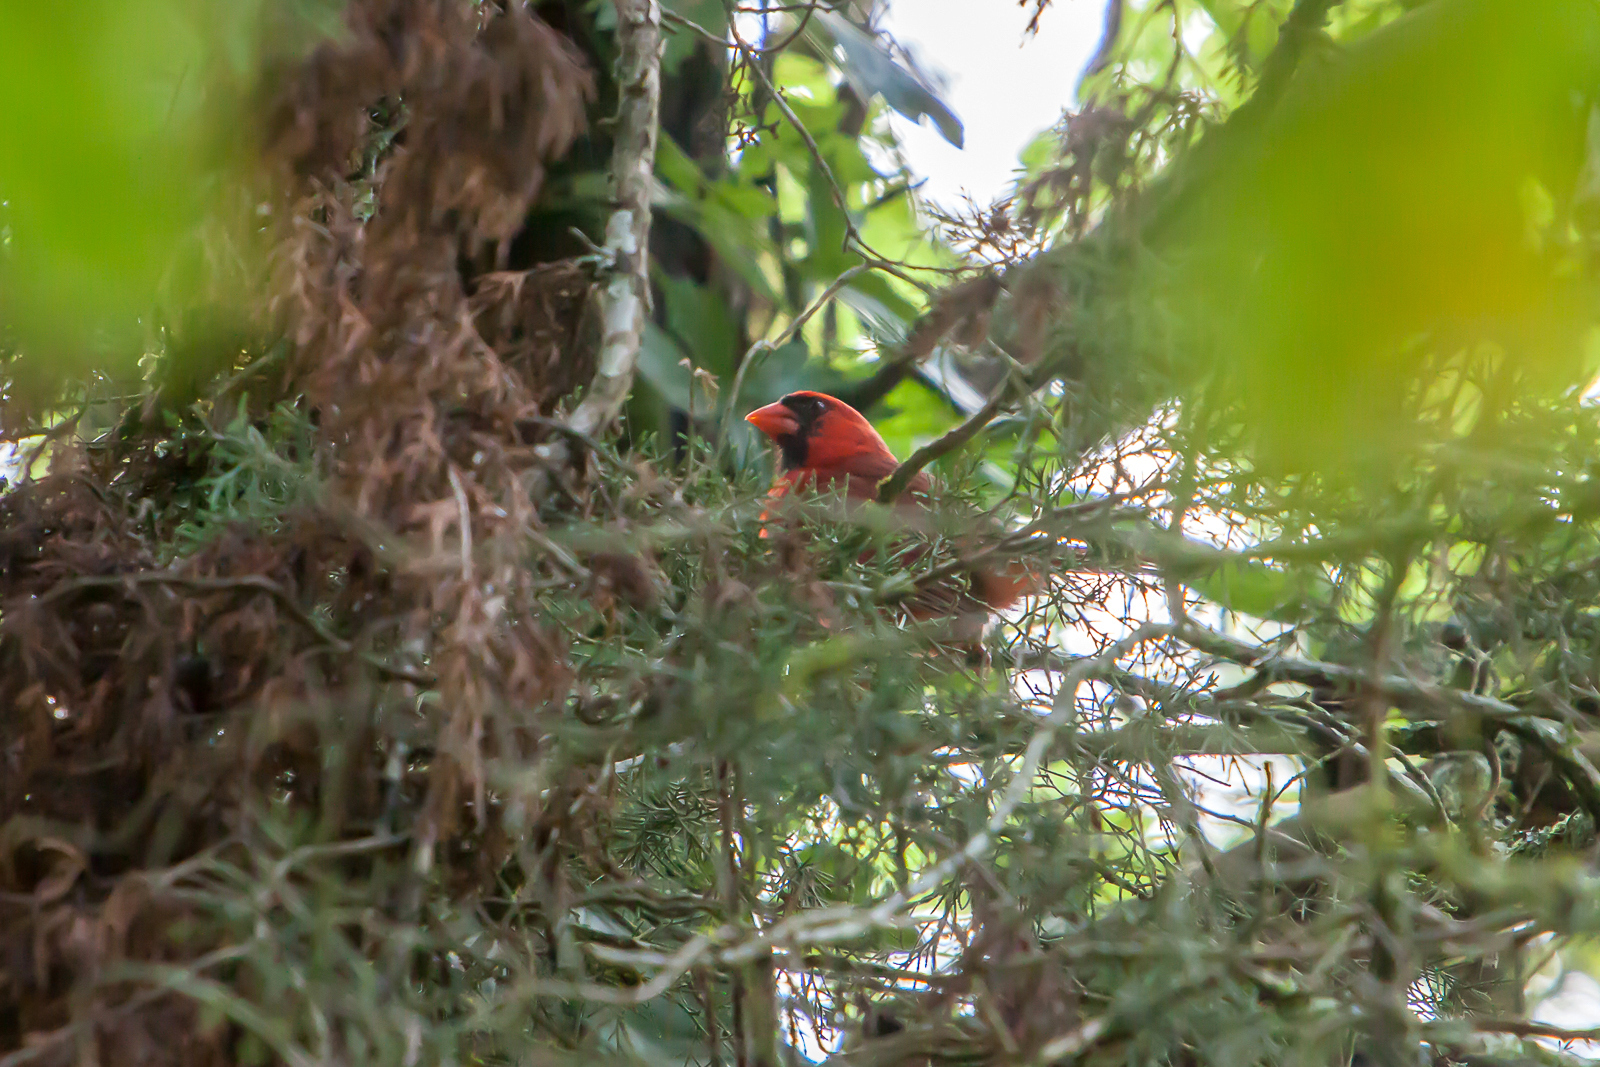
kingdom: Animalia
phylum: Chordata
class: Aves
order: Passeriformes
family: Cardinalidae
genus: Cardinalis
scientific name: Cardinalis cardinalis
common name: Northern cardinal
